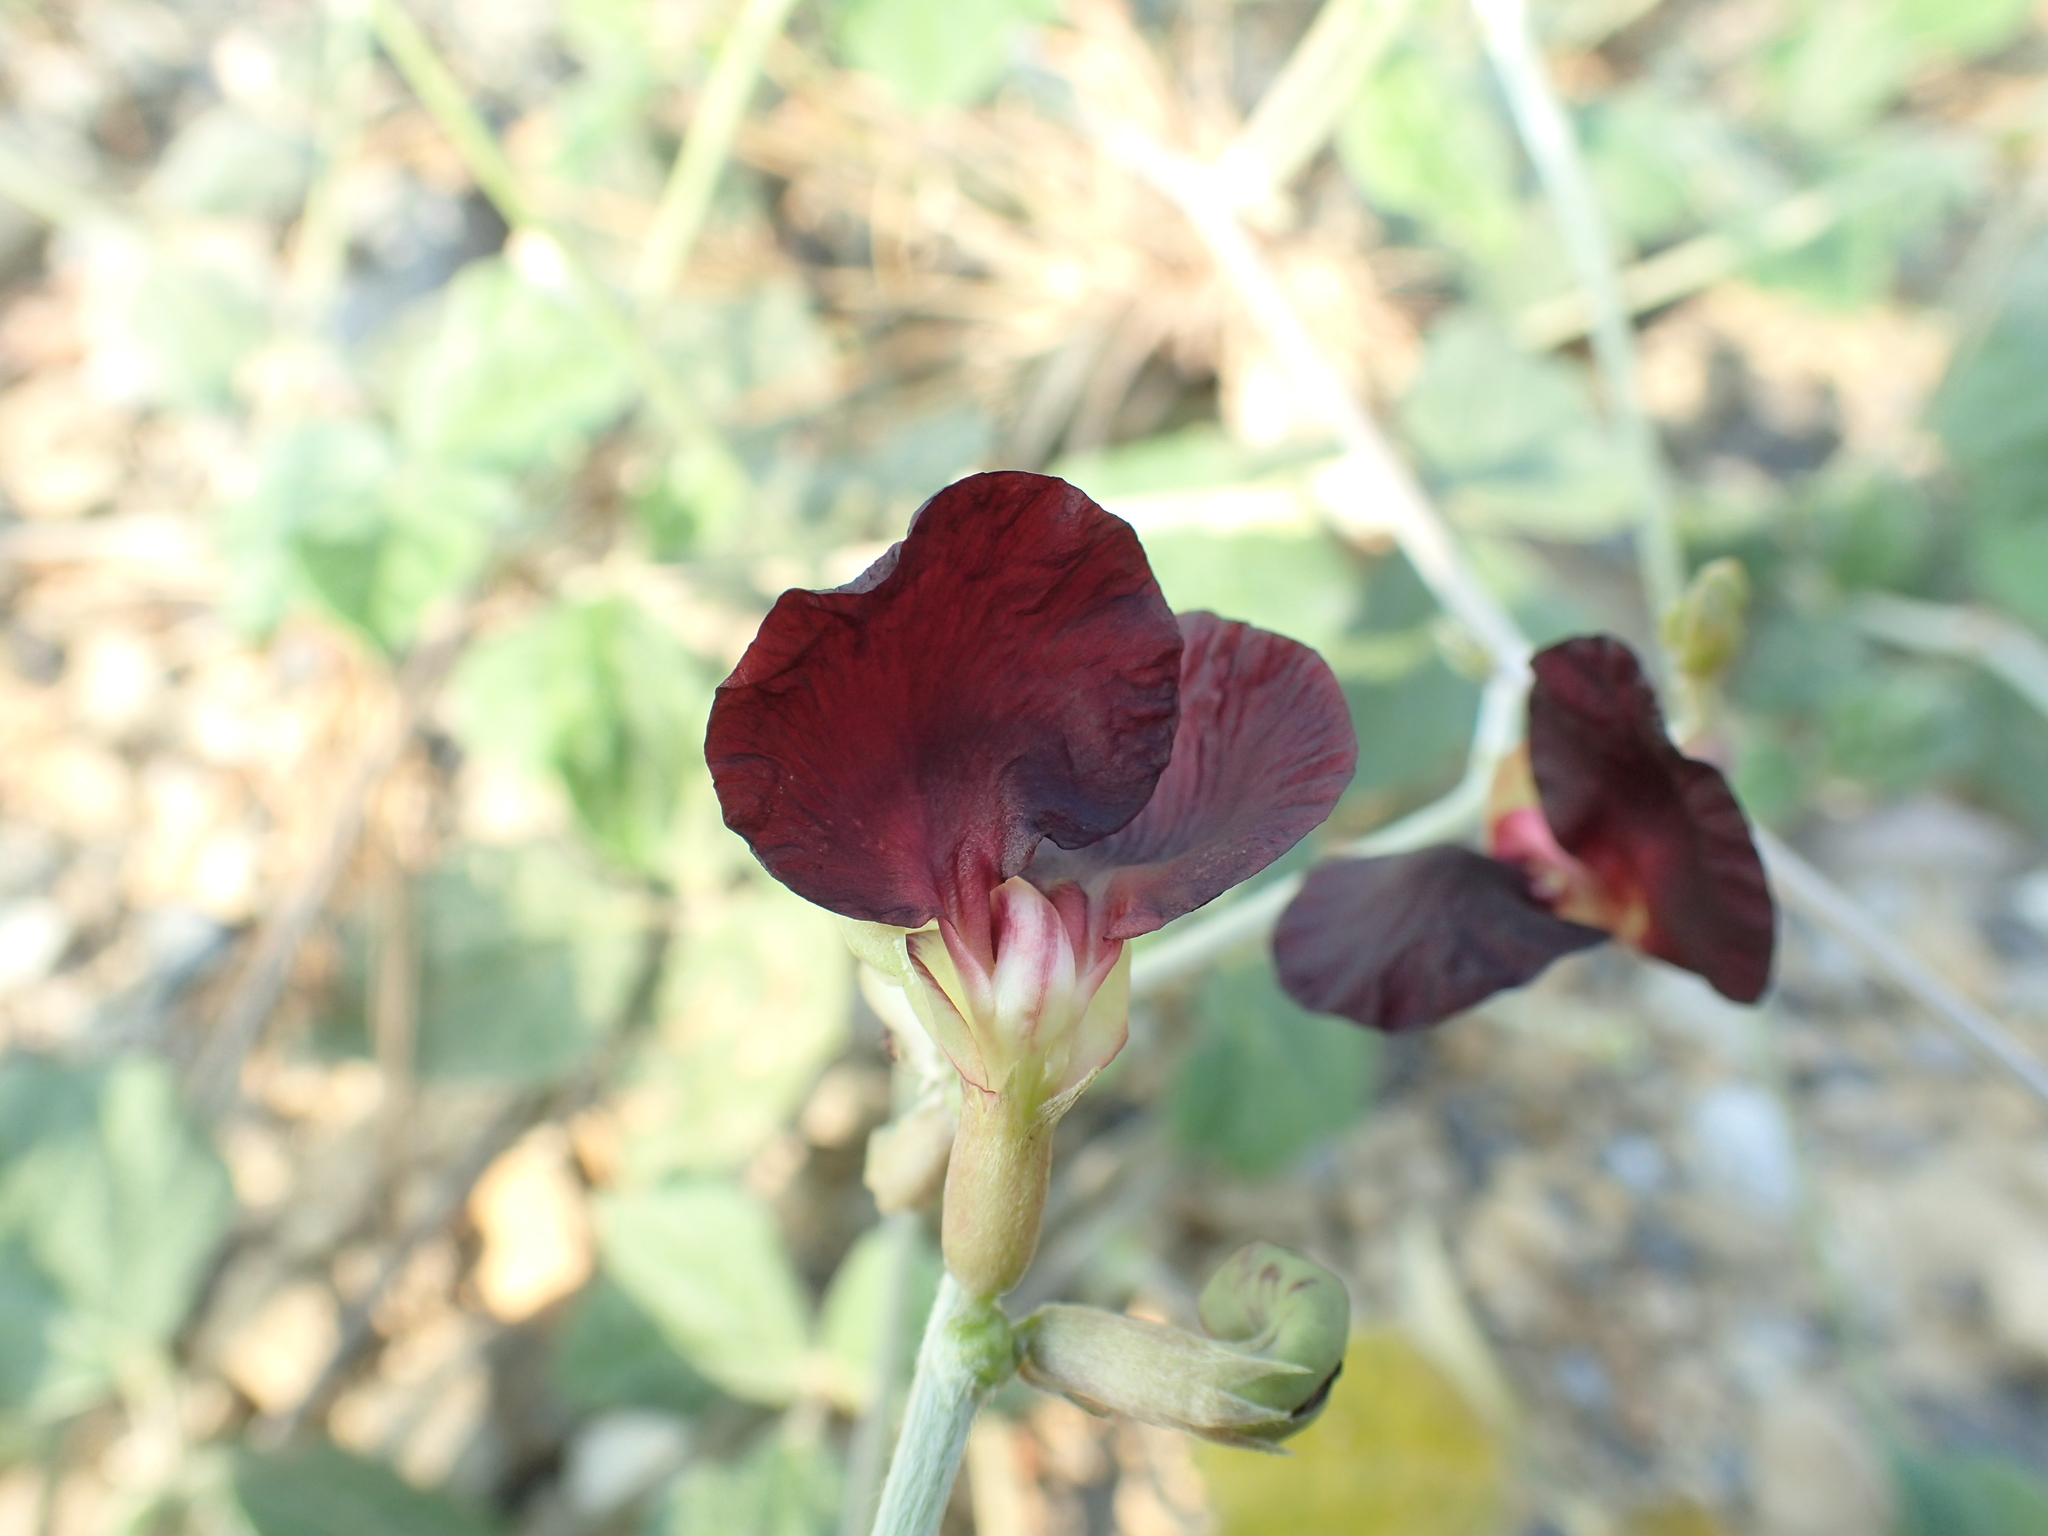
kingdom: Plantae
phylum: Tracheophyta
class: Magnoliopsida
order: Fabales
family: Fabaceae
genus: Macroptilium
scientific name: Macroptilium atropurpureum
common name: Purple bushbean
